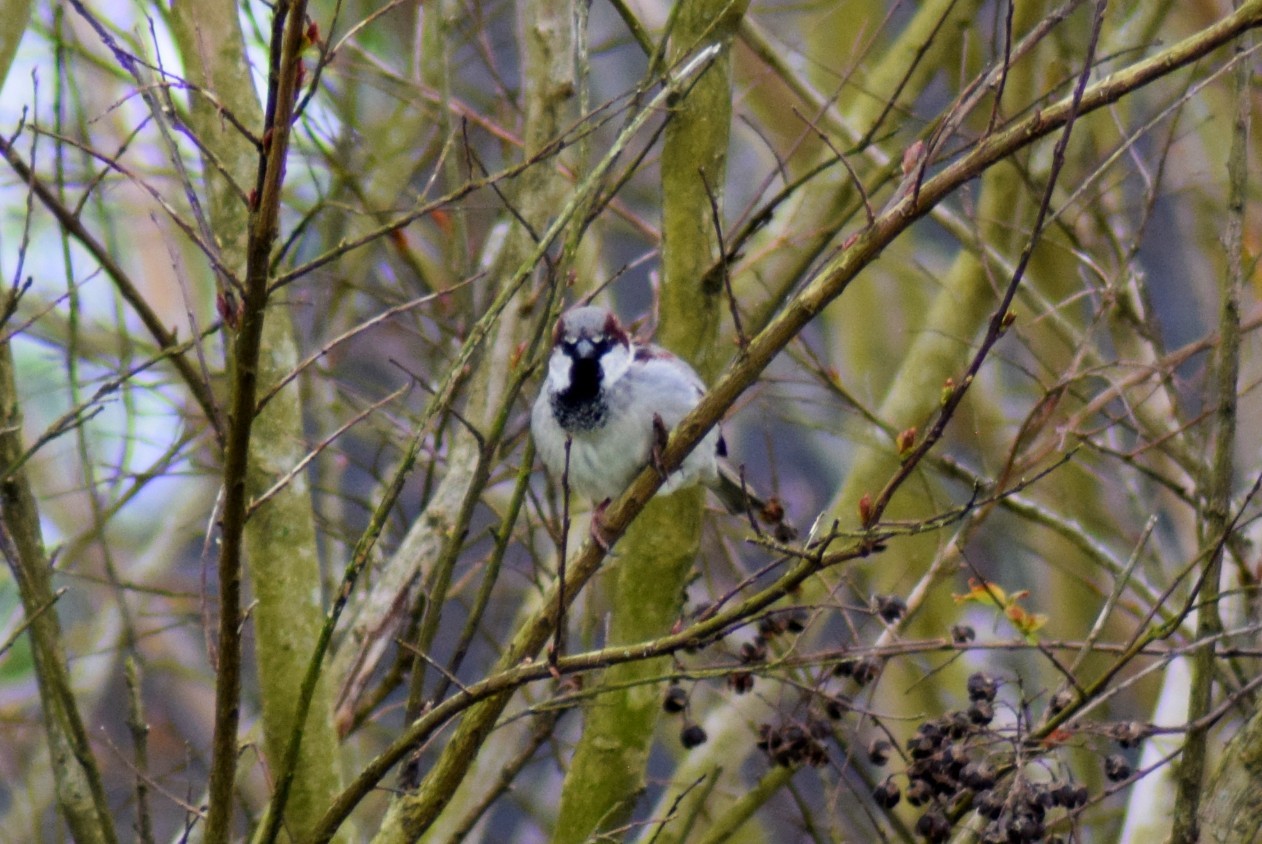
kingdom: Animalia
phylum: Chordata
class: Aves
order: Passeriformes
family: Passeridae
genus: Passer
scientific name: Passer domesticus
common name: House sparrow
